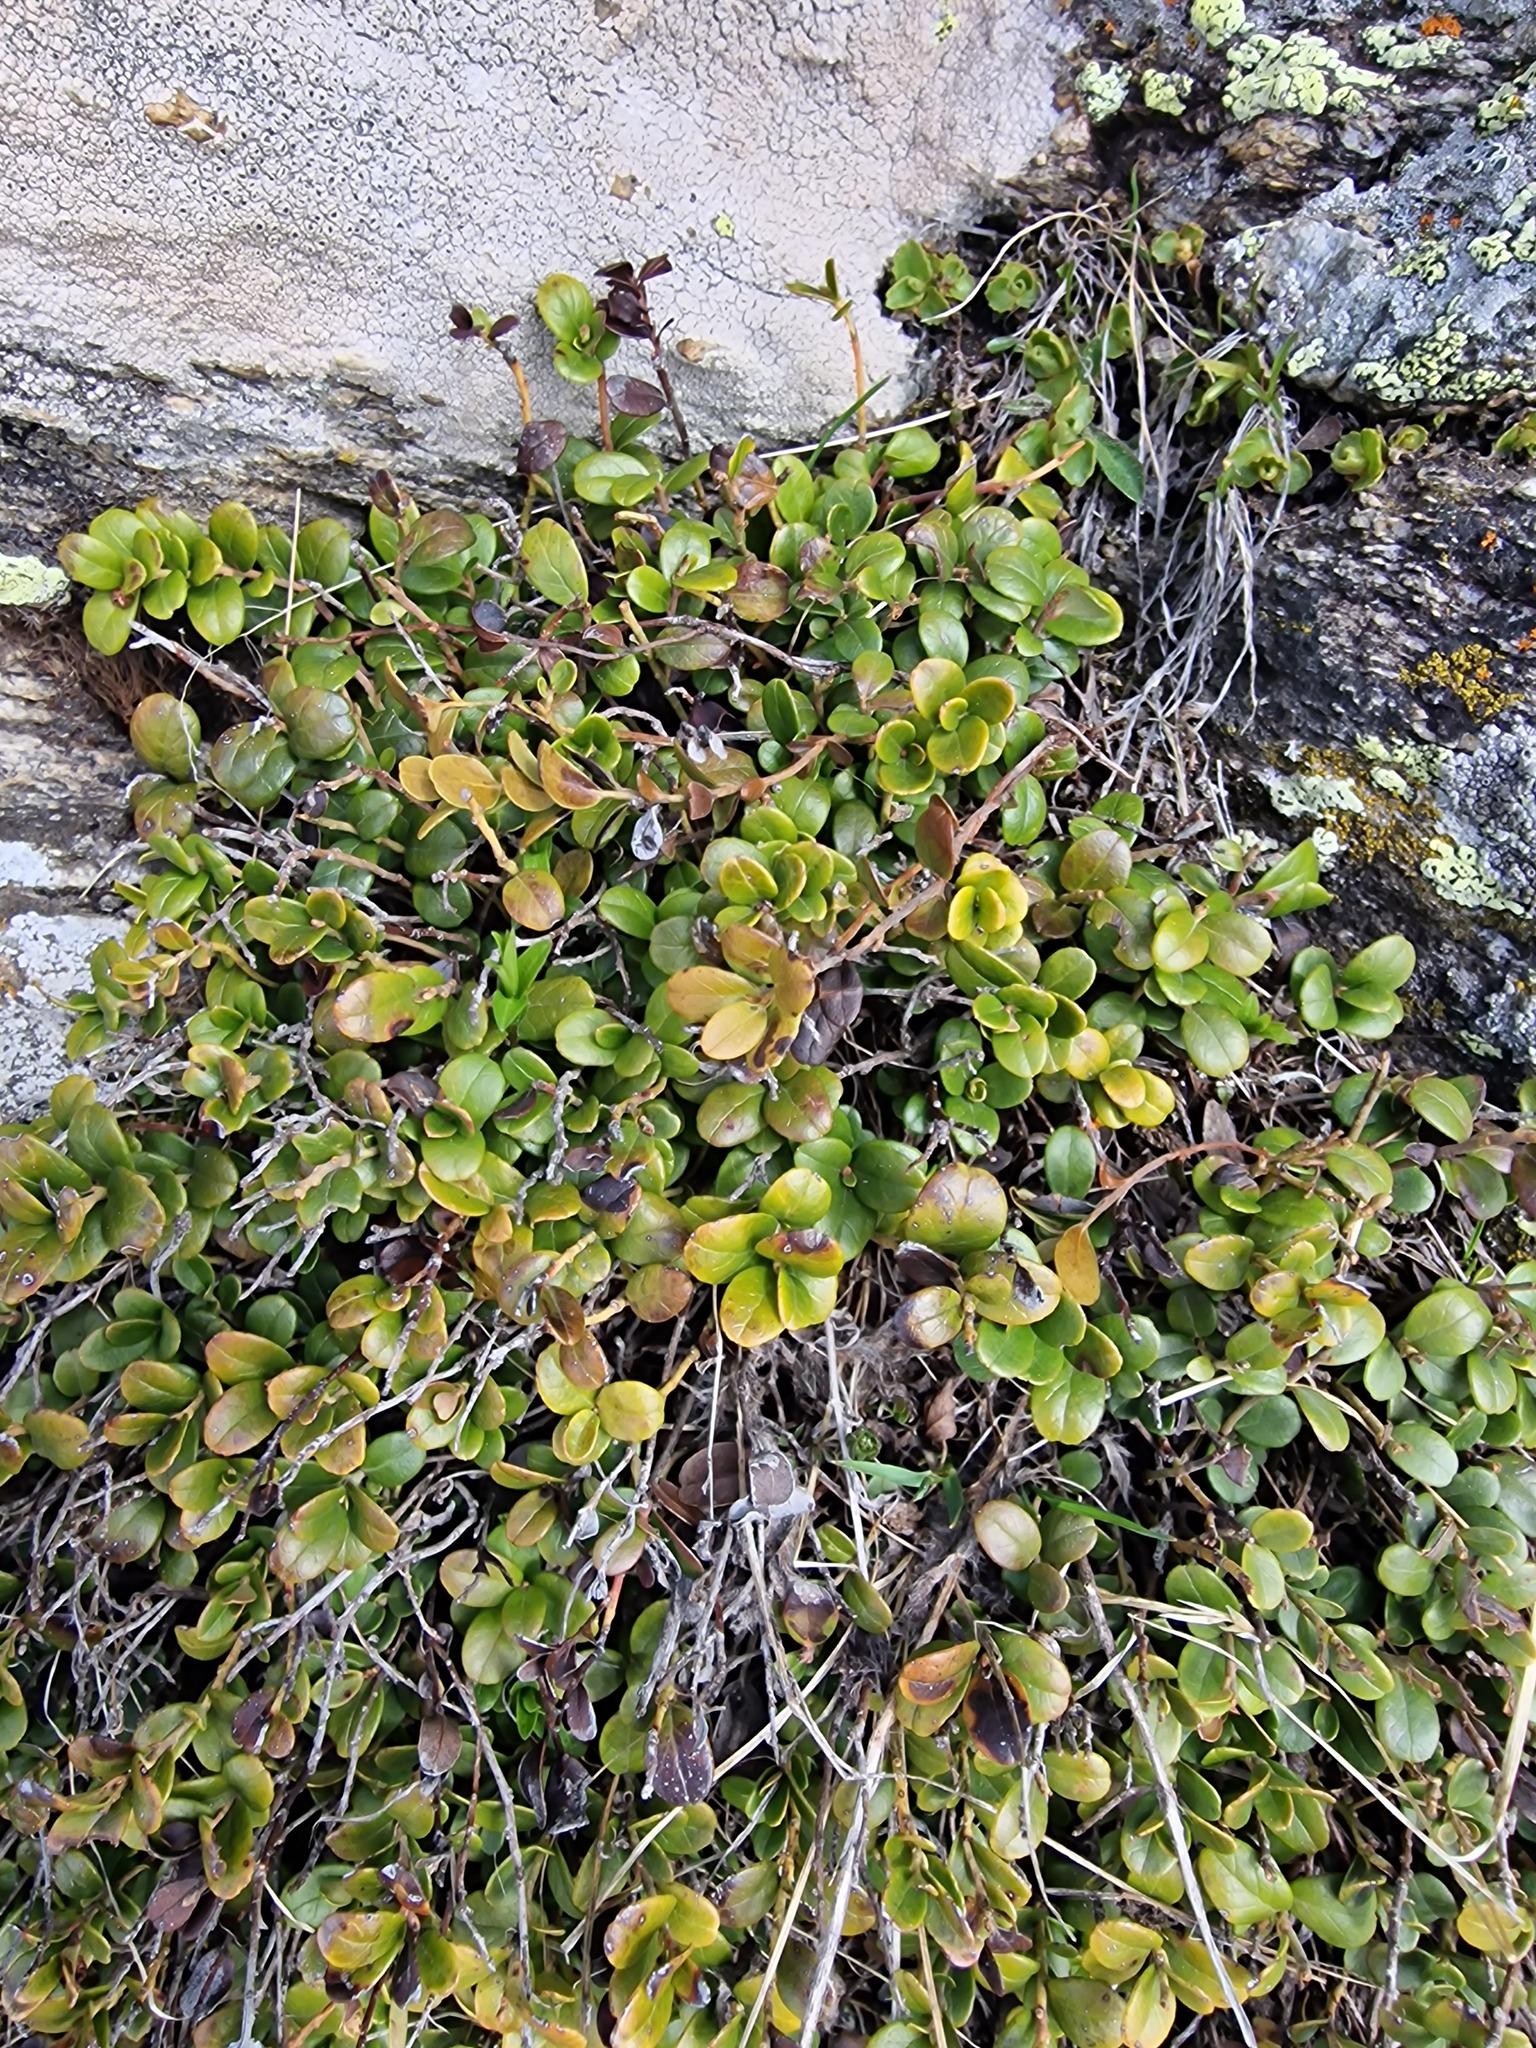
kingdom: Plantae
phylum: Tracheophyta
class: Magnoliopsida
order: Ericales
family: Ericaceae
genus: Vaccinium
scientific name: Vaccinium vitis-idaea
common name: Cowberry
